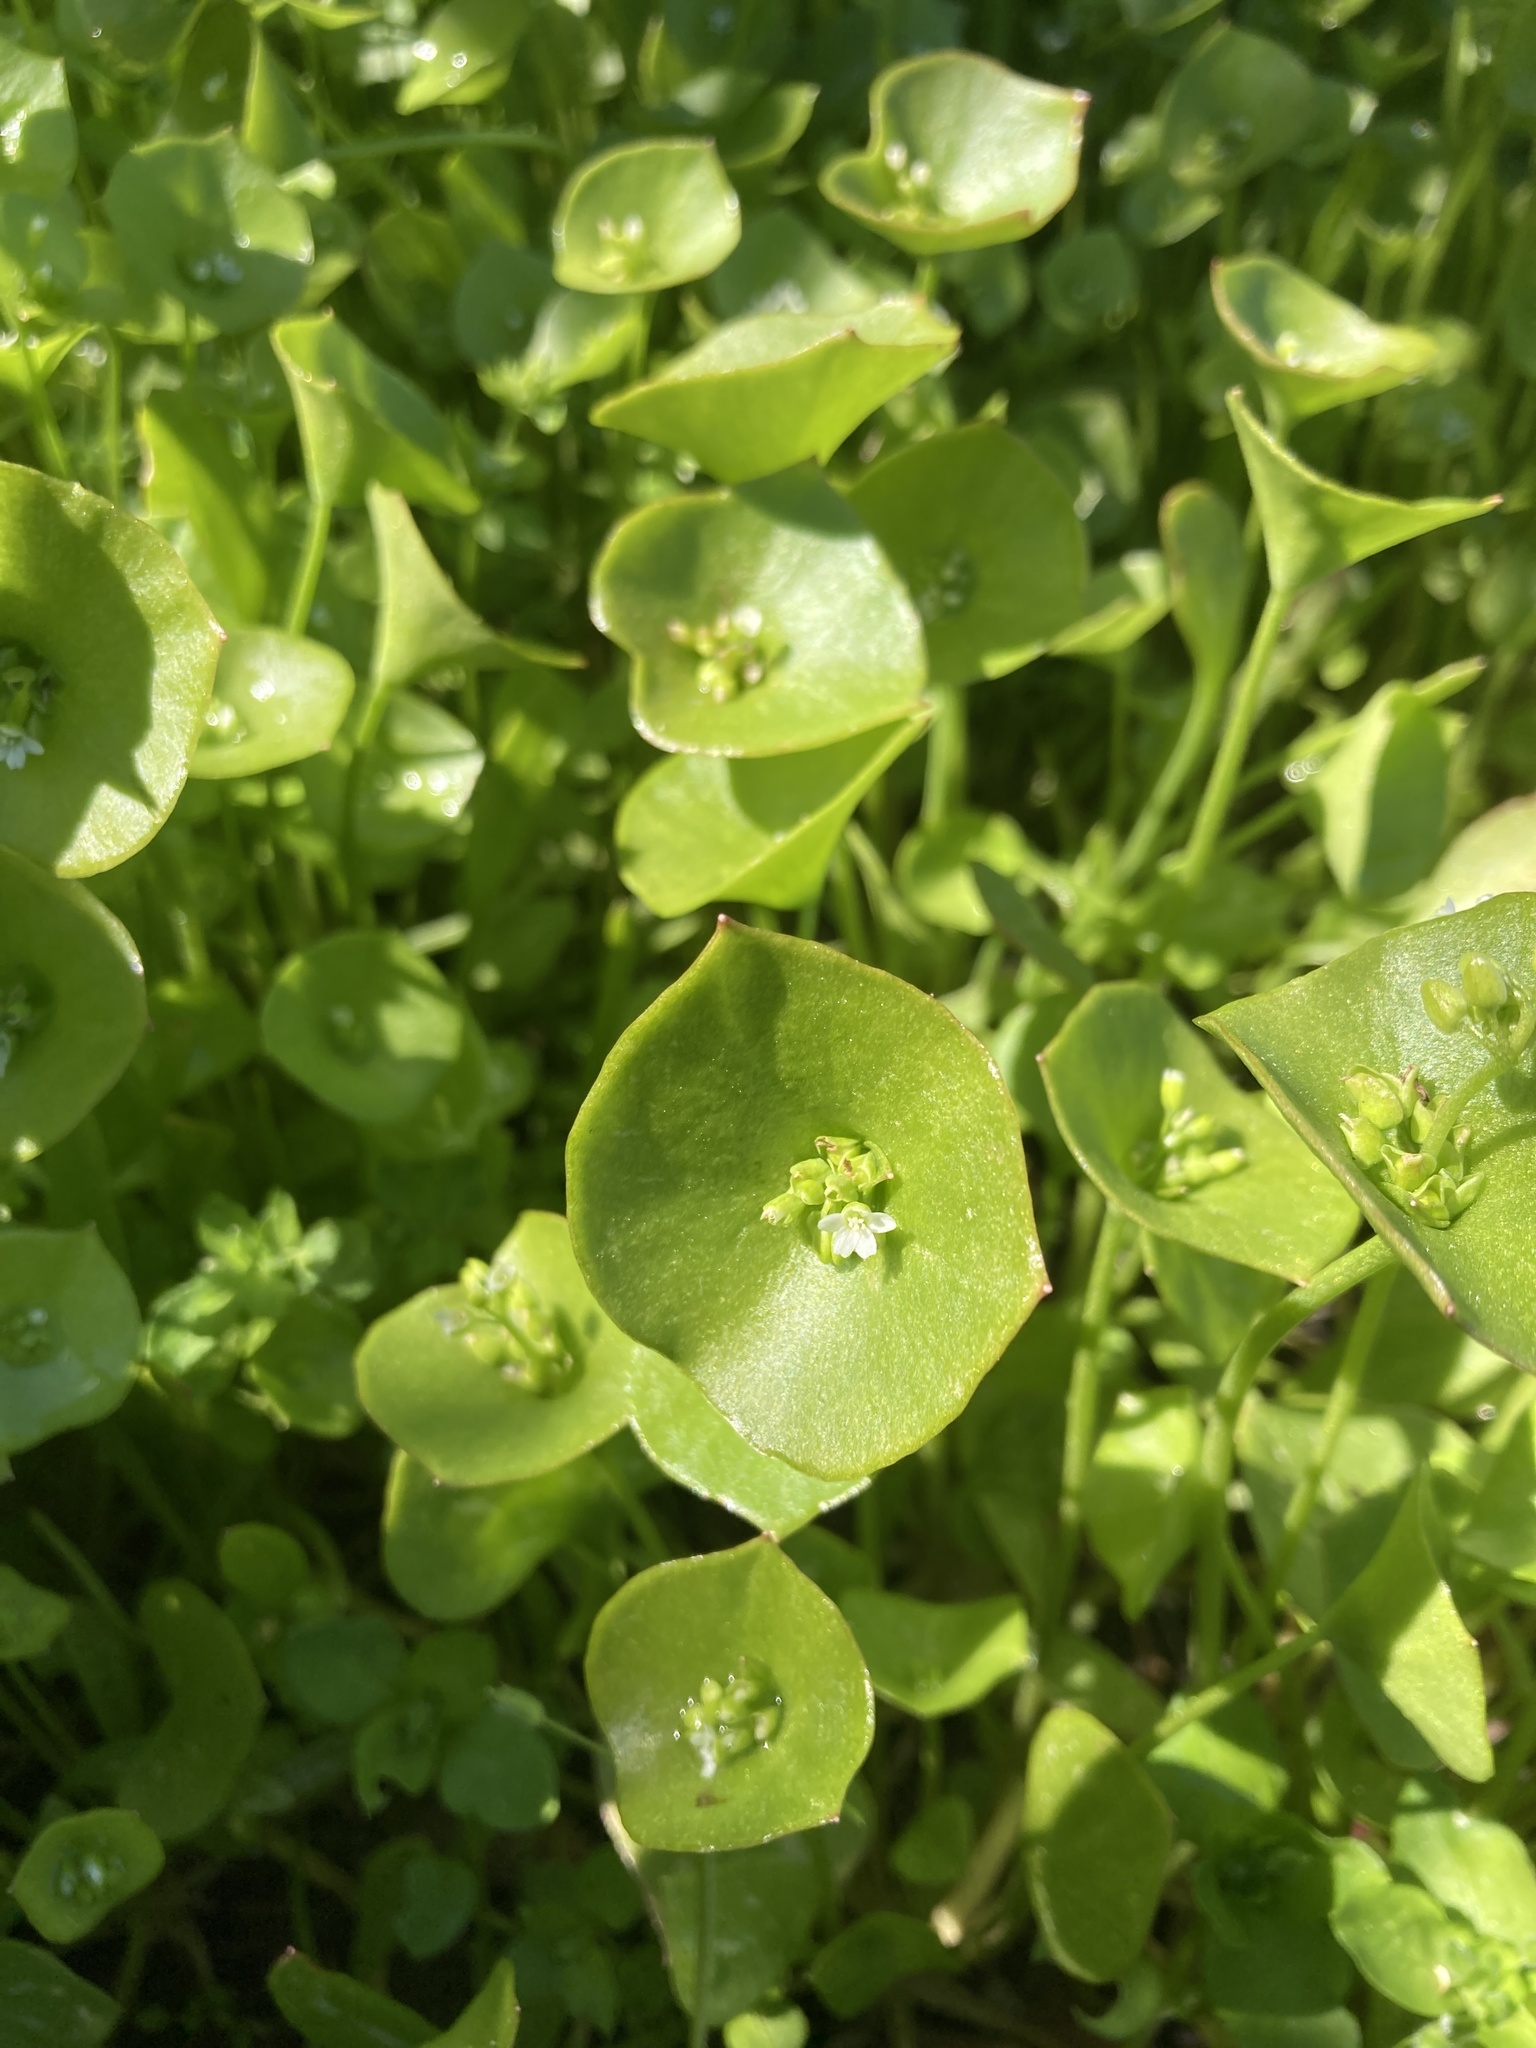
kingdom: Plantae
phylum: Tracheophyta
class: Magnoliopsida
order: Caryophyllales
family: Montiaceae
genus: Claytonia
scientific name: Claytonia perfoliata
